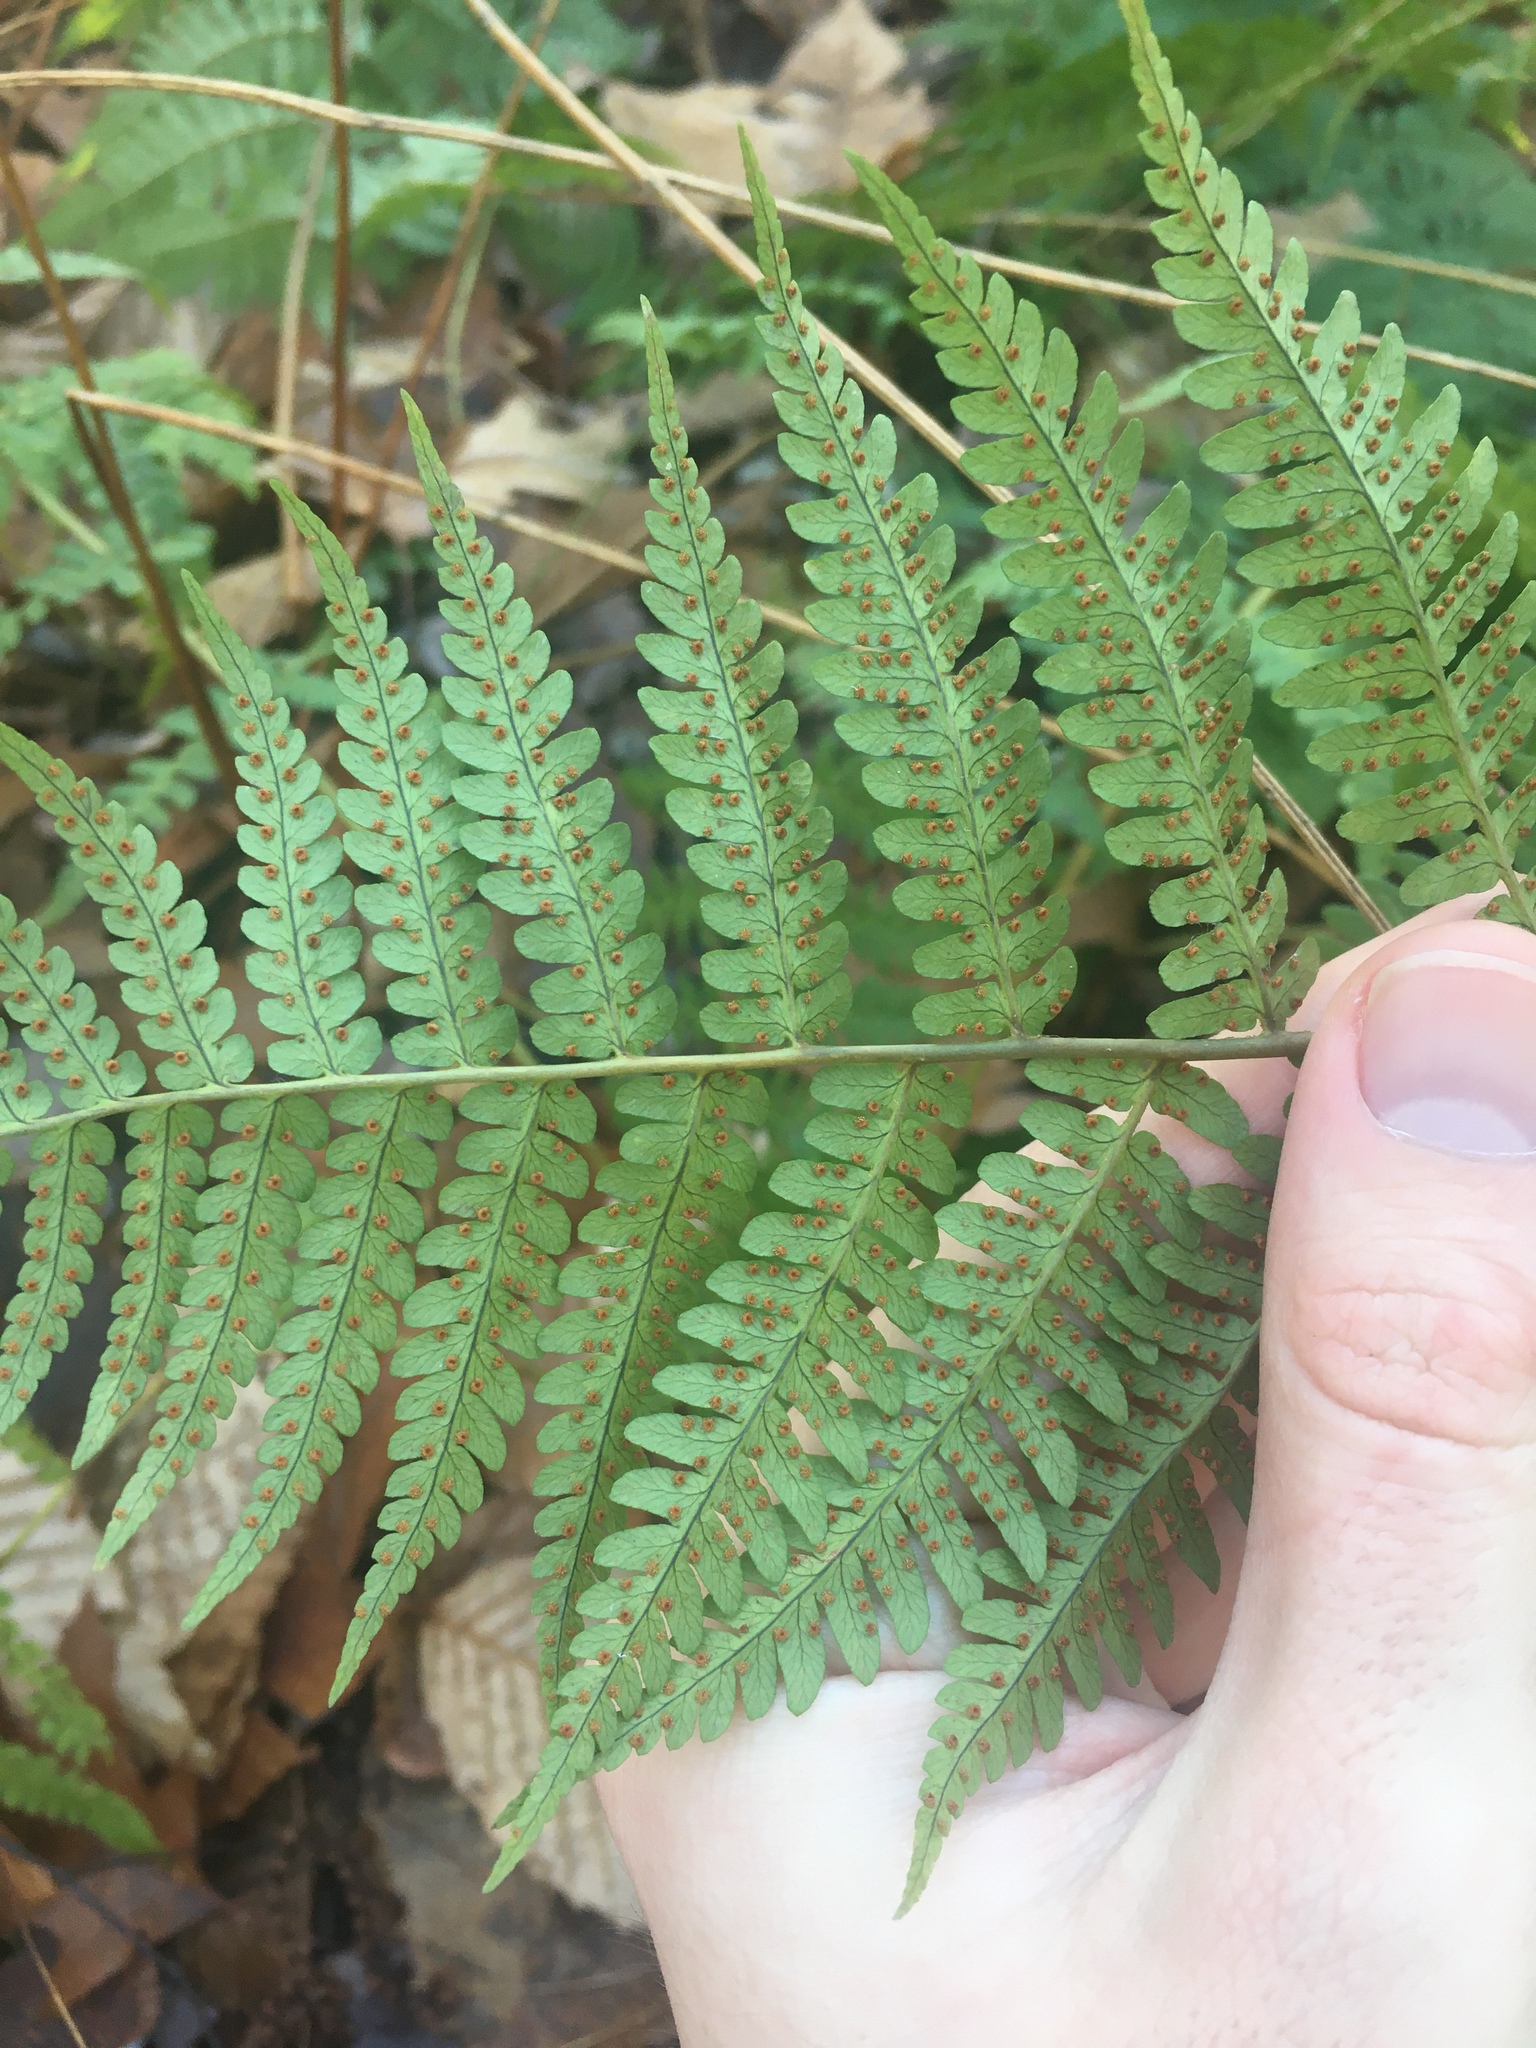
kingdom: Plantae
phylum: Tracheophyta
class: Polypodiopsida
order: Polypodiales
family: Dryopteridaceae
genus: Dryopteris
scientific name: Dryopteris marginalis
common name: Marginal wood fern
